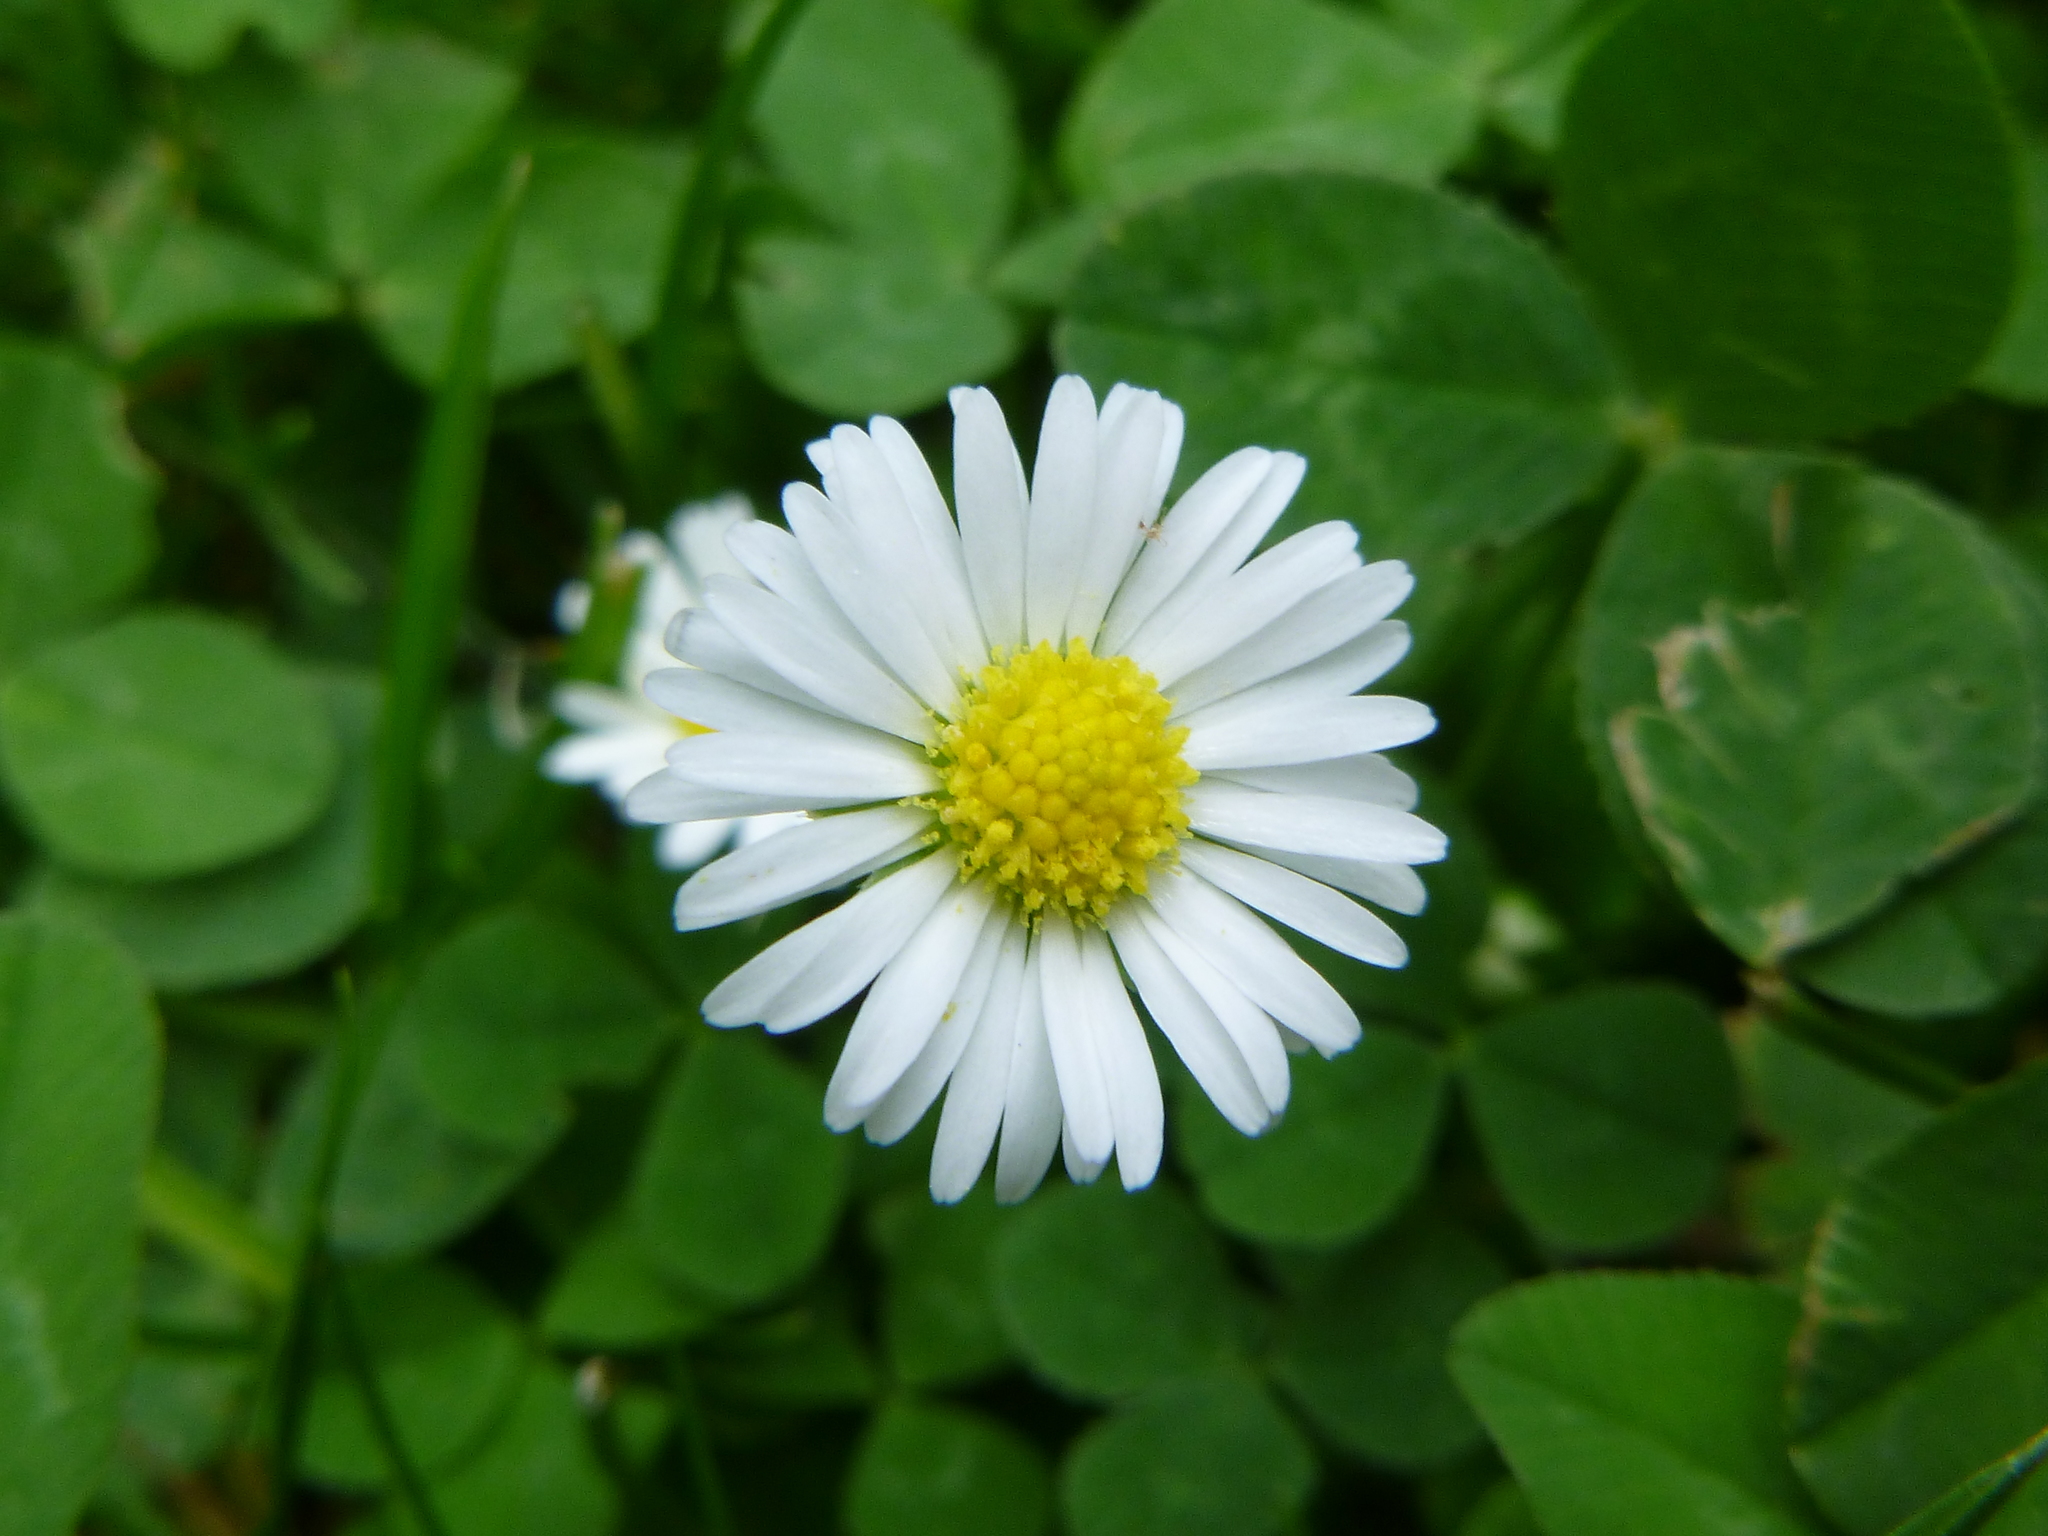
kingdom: Plantae
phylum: Tracheophyta
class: Magnoliopsida
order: Asterales
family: Asteraceae
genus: Bellis
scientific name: Bellis perennis
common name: Lawndaisy
